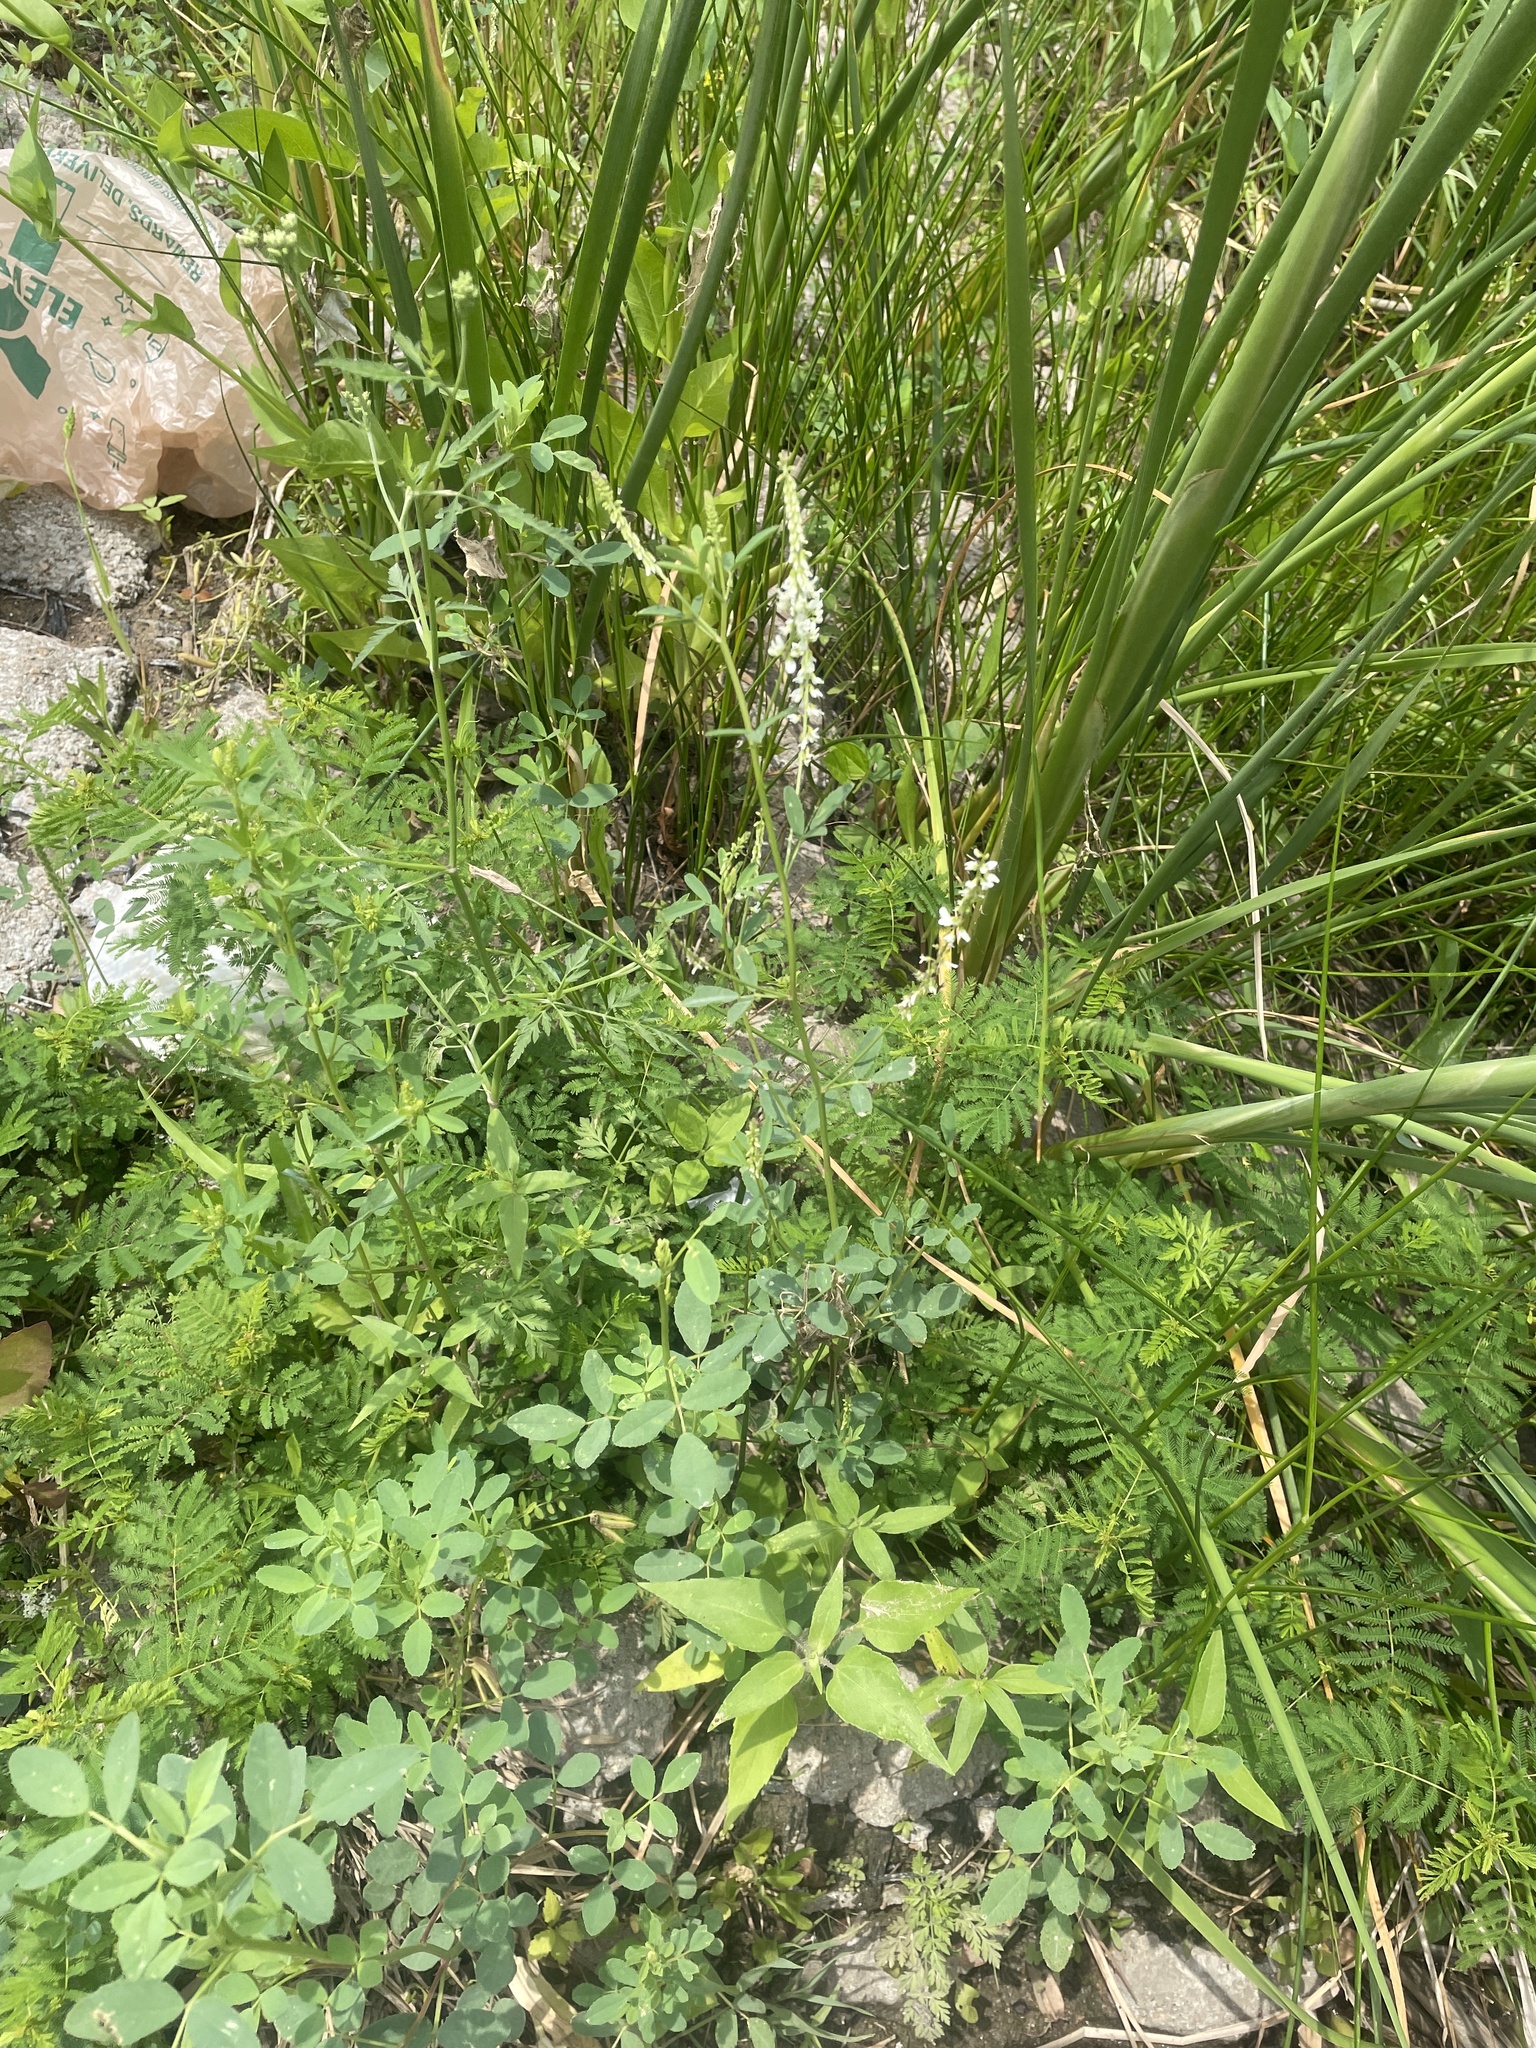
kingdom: Plantae
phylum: Tracheophyta
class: Magnoliopsida
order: Fabales
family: Fabaceae
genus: Melilotus
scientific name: Melilotus albus
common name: White melilot
